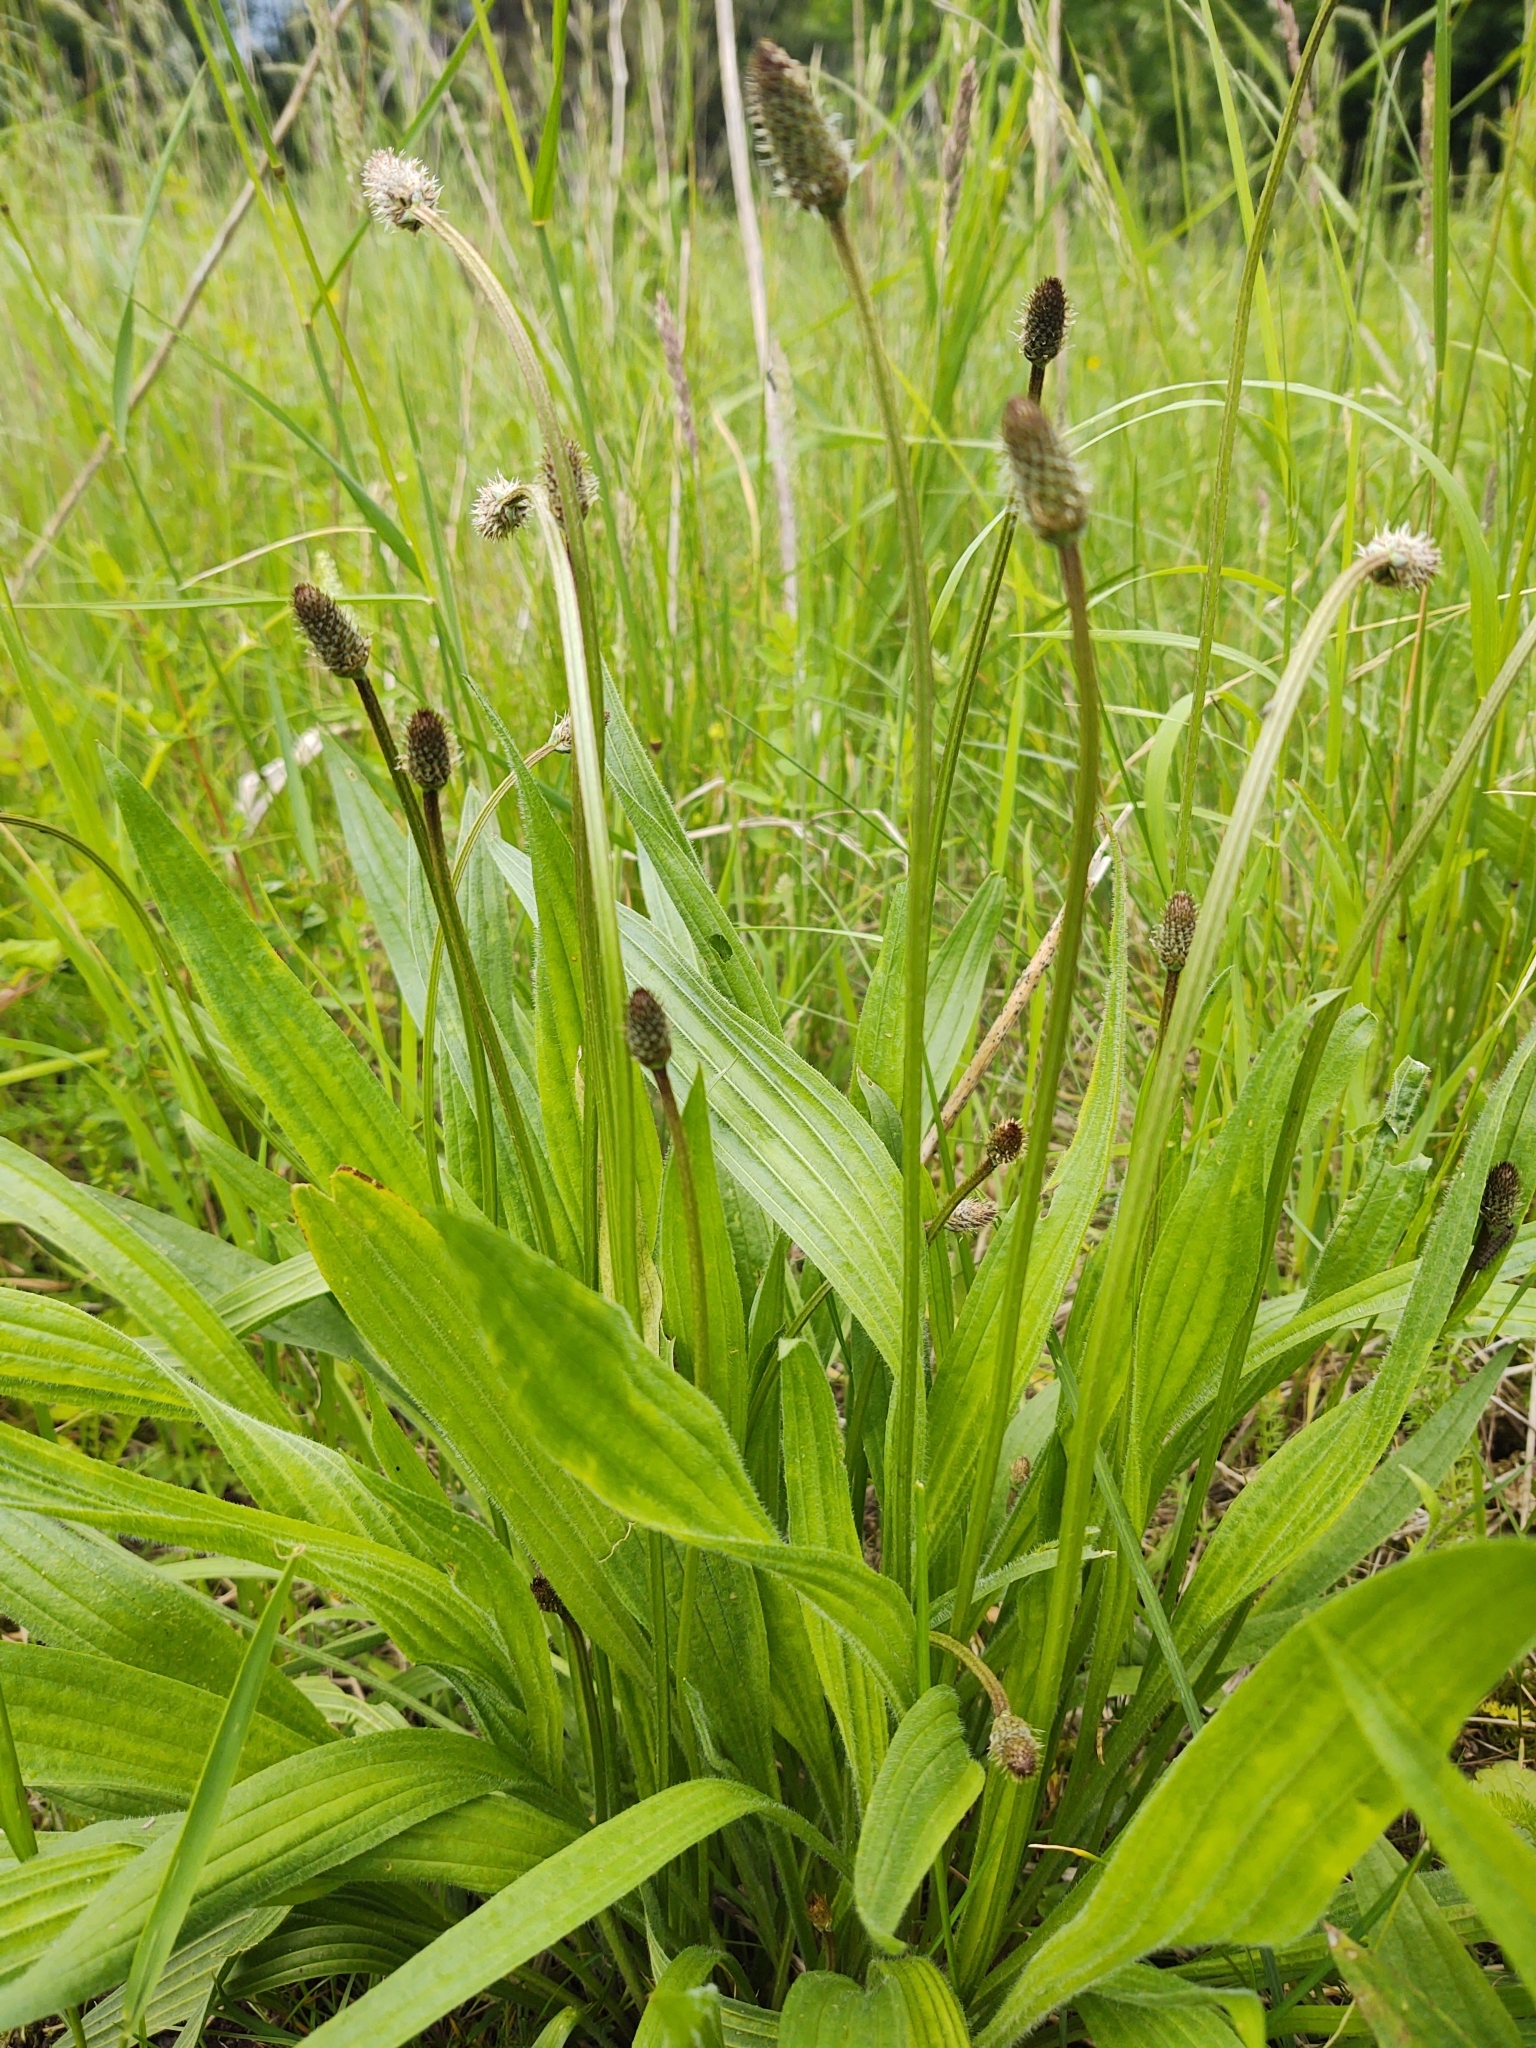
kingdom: Plantae
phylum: Tracheophyta
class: Magnoliopsida
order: Lamiales
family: Plantaginaceae
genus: Plantago
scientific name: Plantago lanceolata
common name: Ribwort plantain
